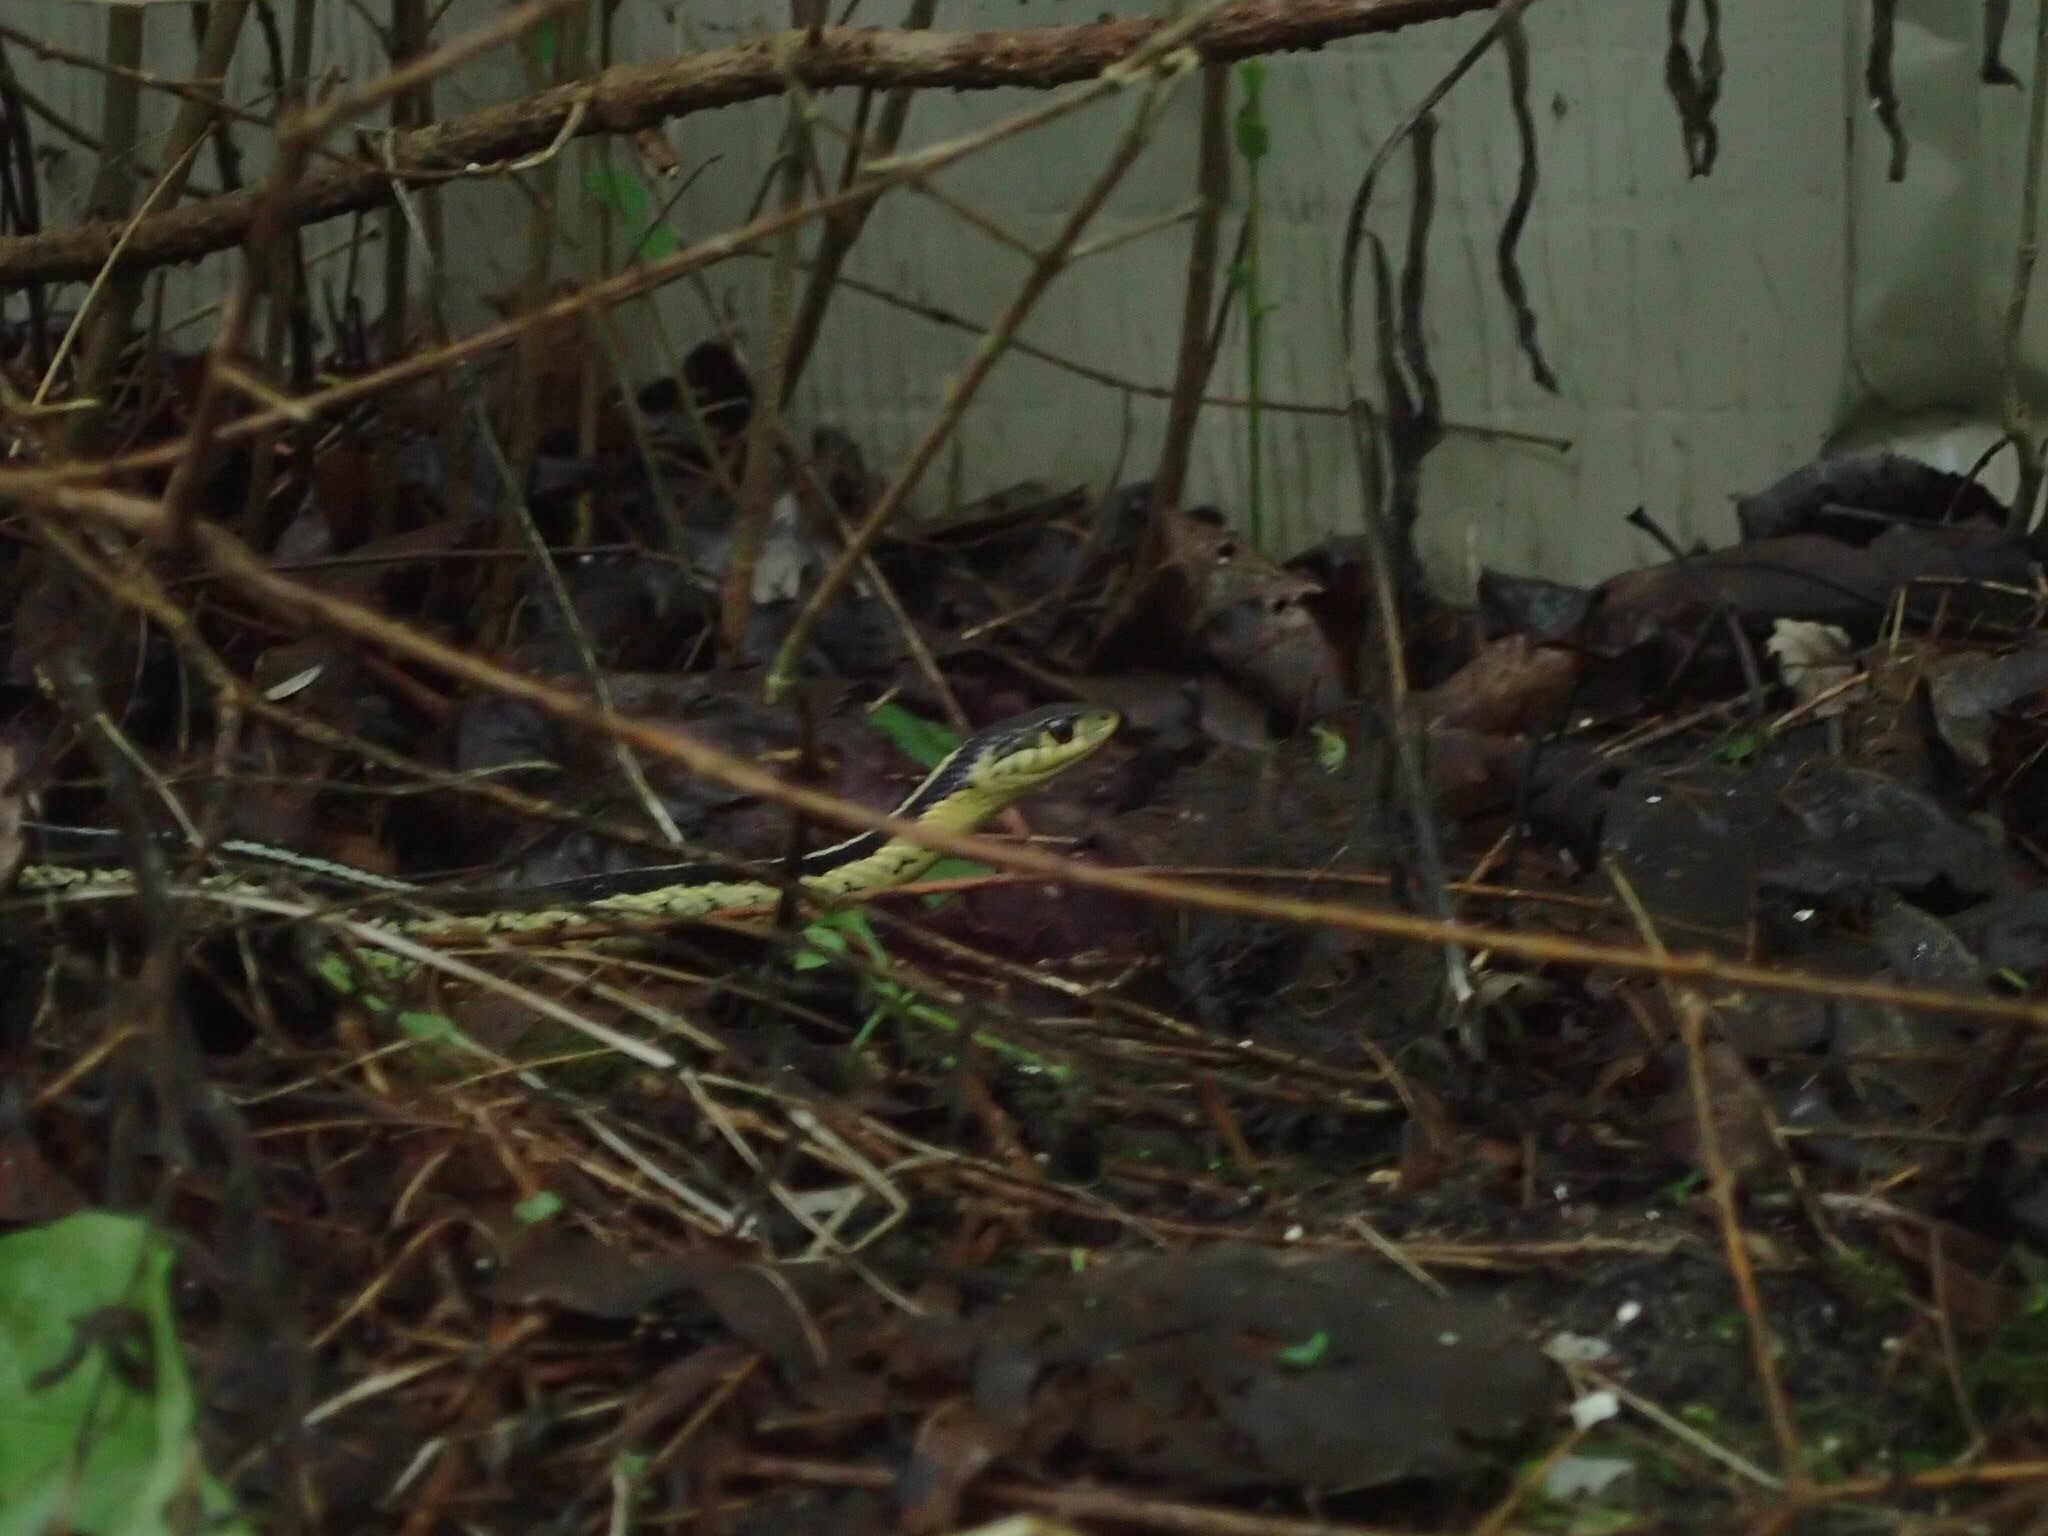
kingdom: Animalia
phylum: Chordata
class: Squamata
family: Colubridae
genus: Thamnophis
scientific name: Thamnophis sirtalis
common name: Common garter snake
